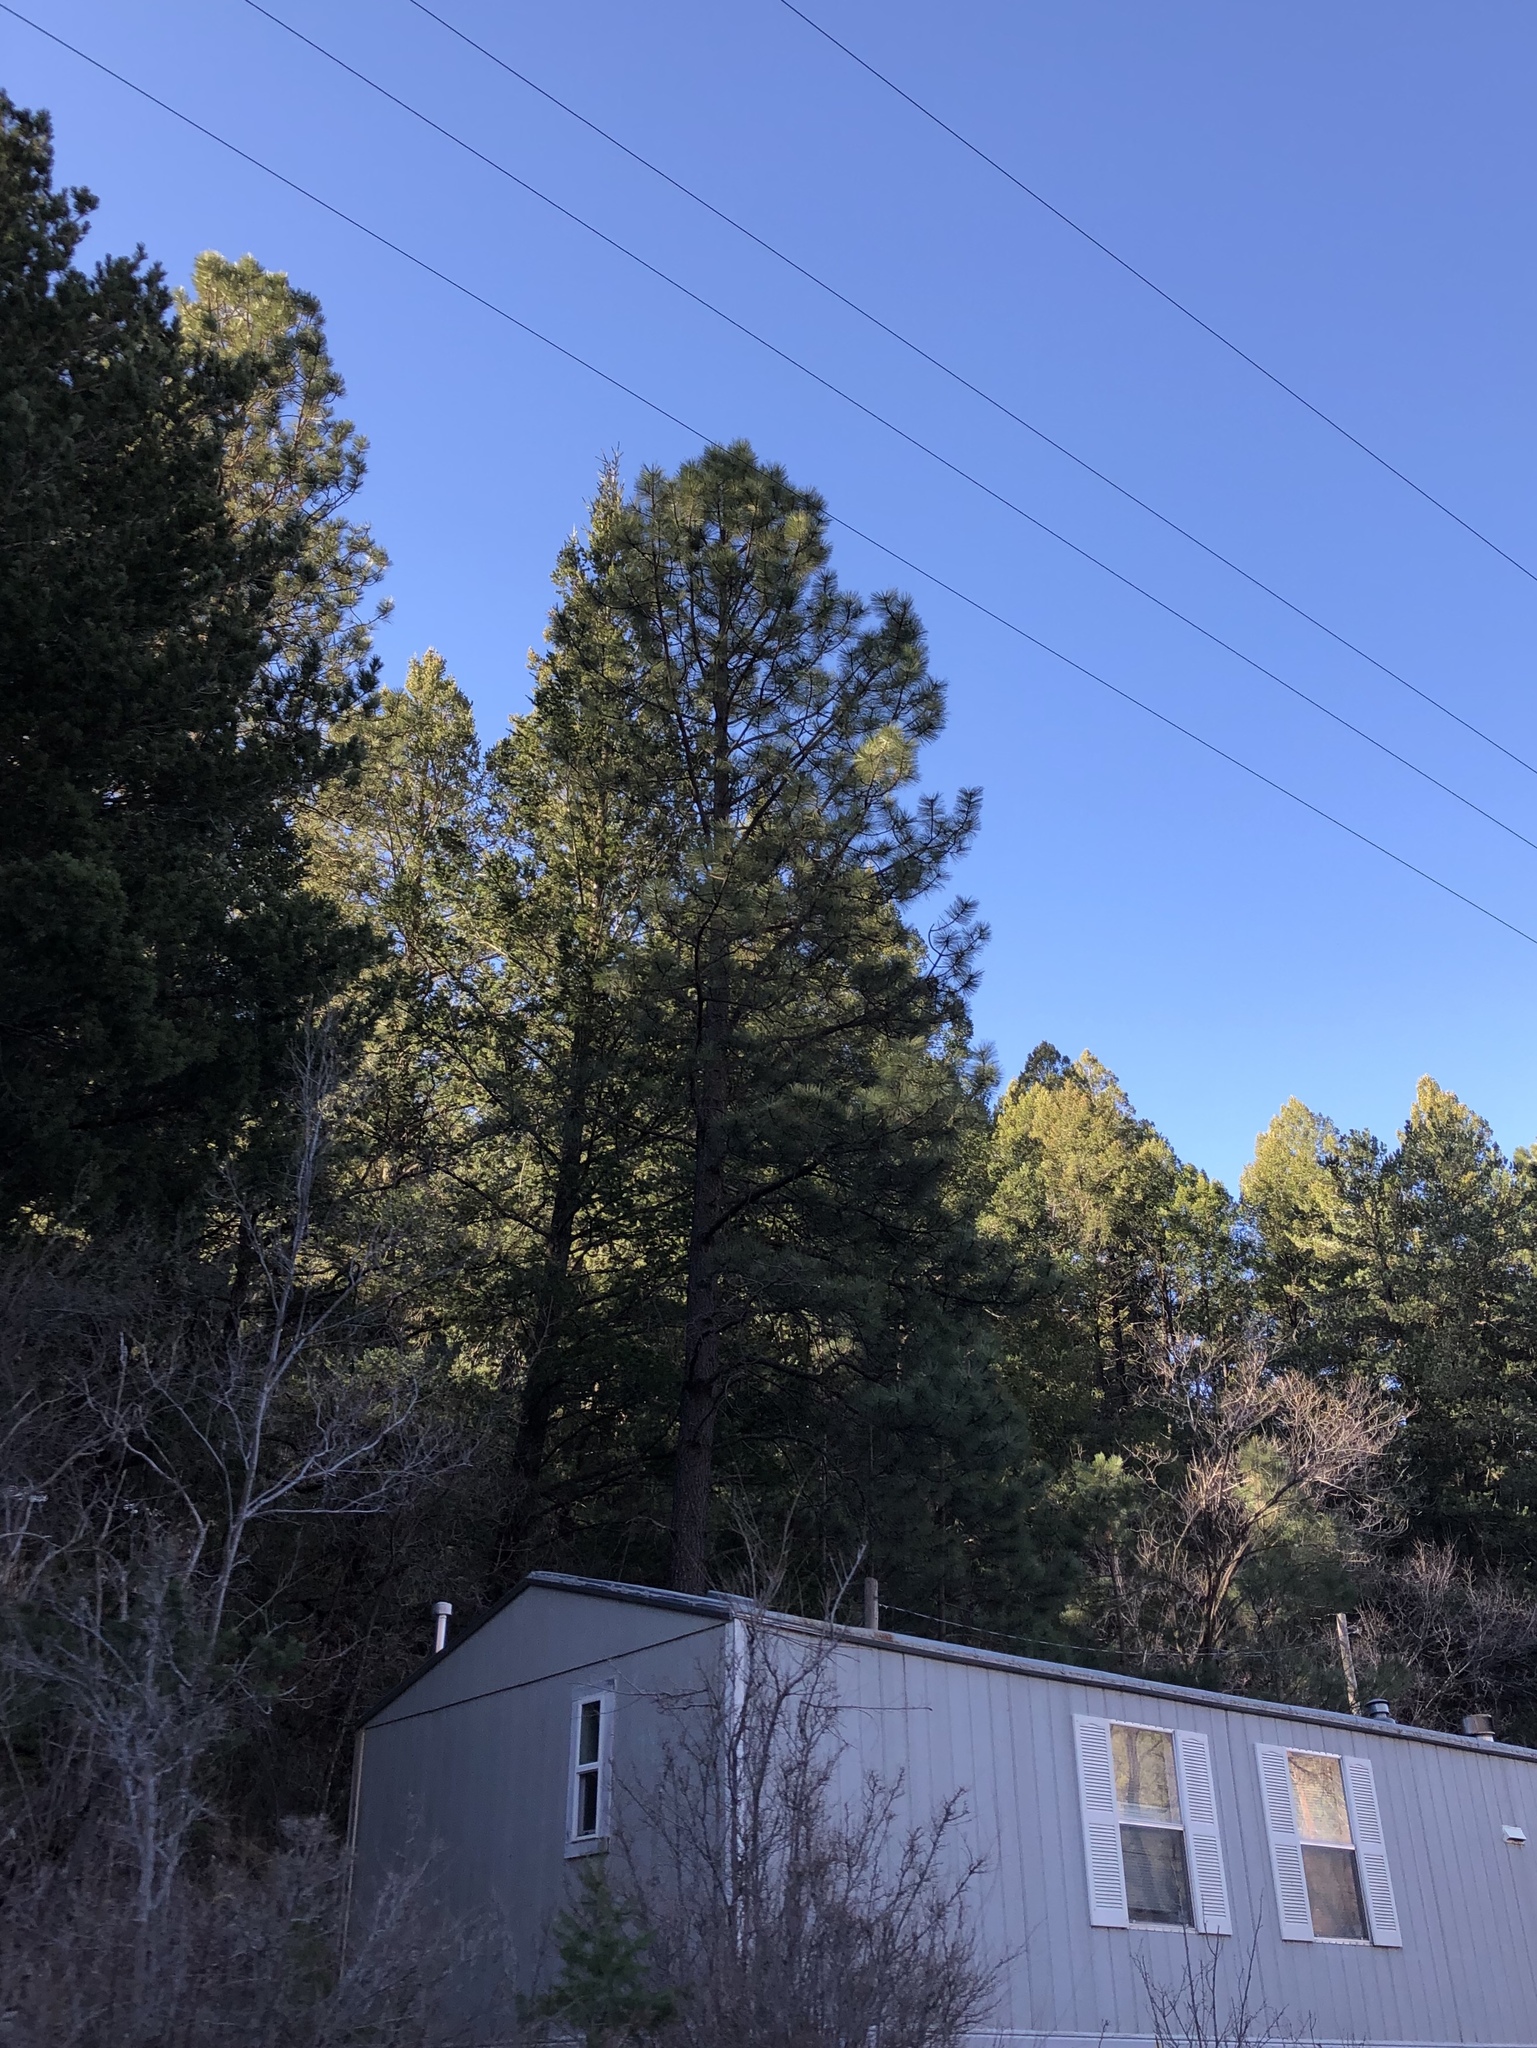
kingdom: Plantae
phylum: Tracheophyta
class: Pinopsida
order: Pinales
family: Pinaceae
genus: Pinus
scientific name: Pinus ponderosa
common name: Western yellow-pine
